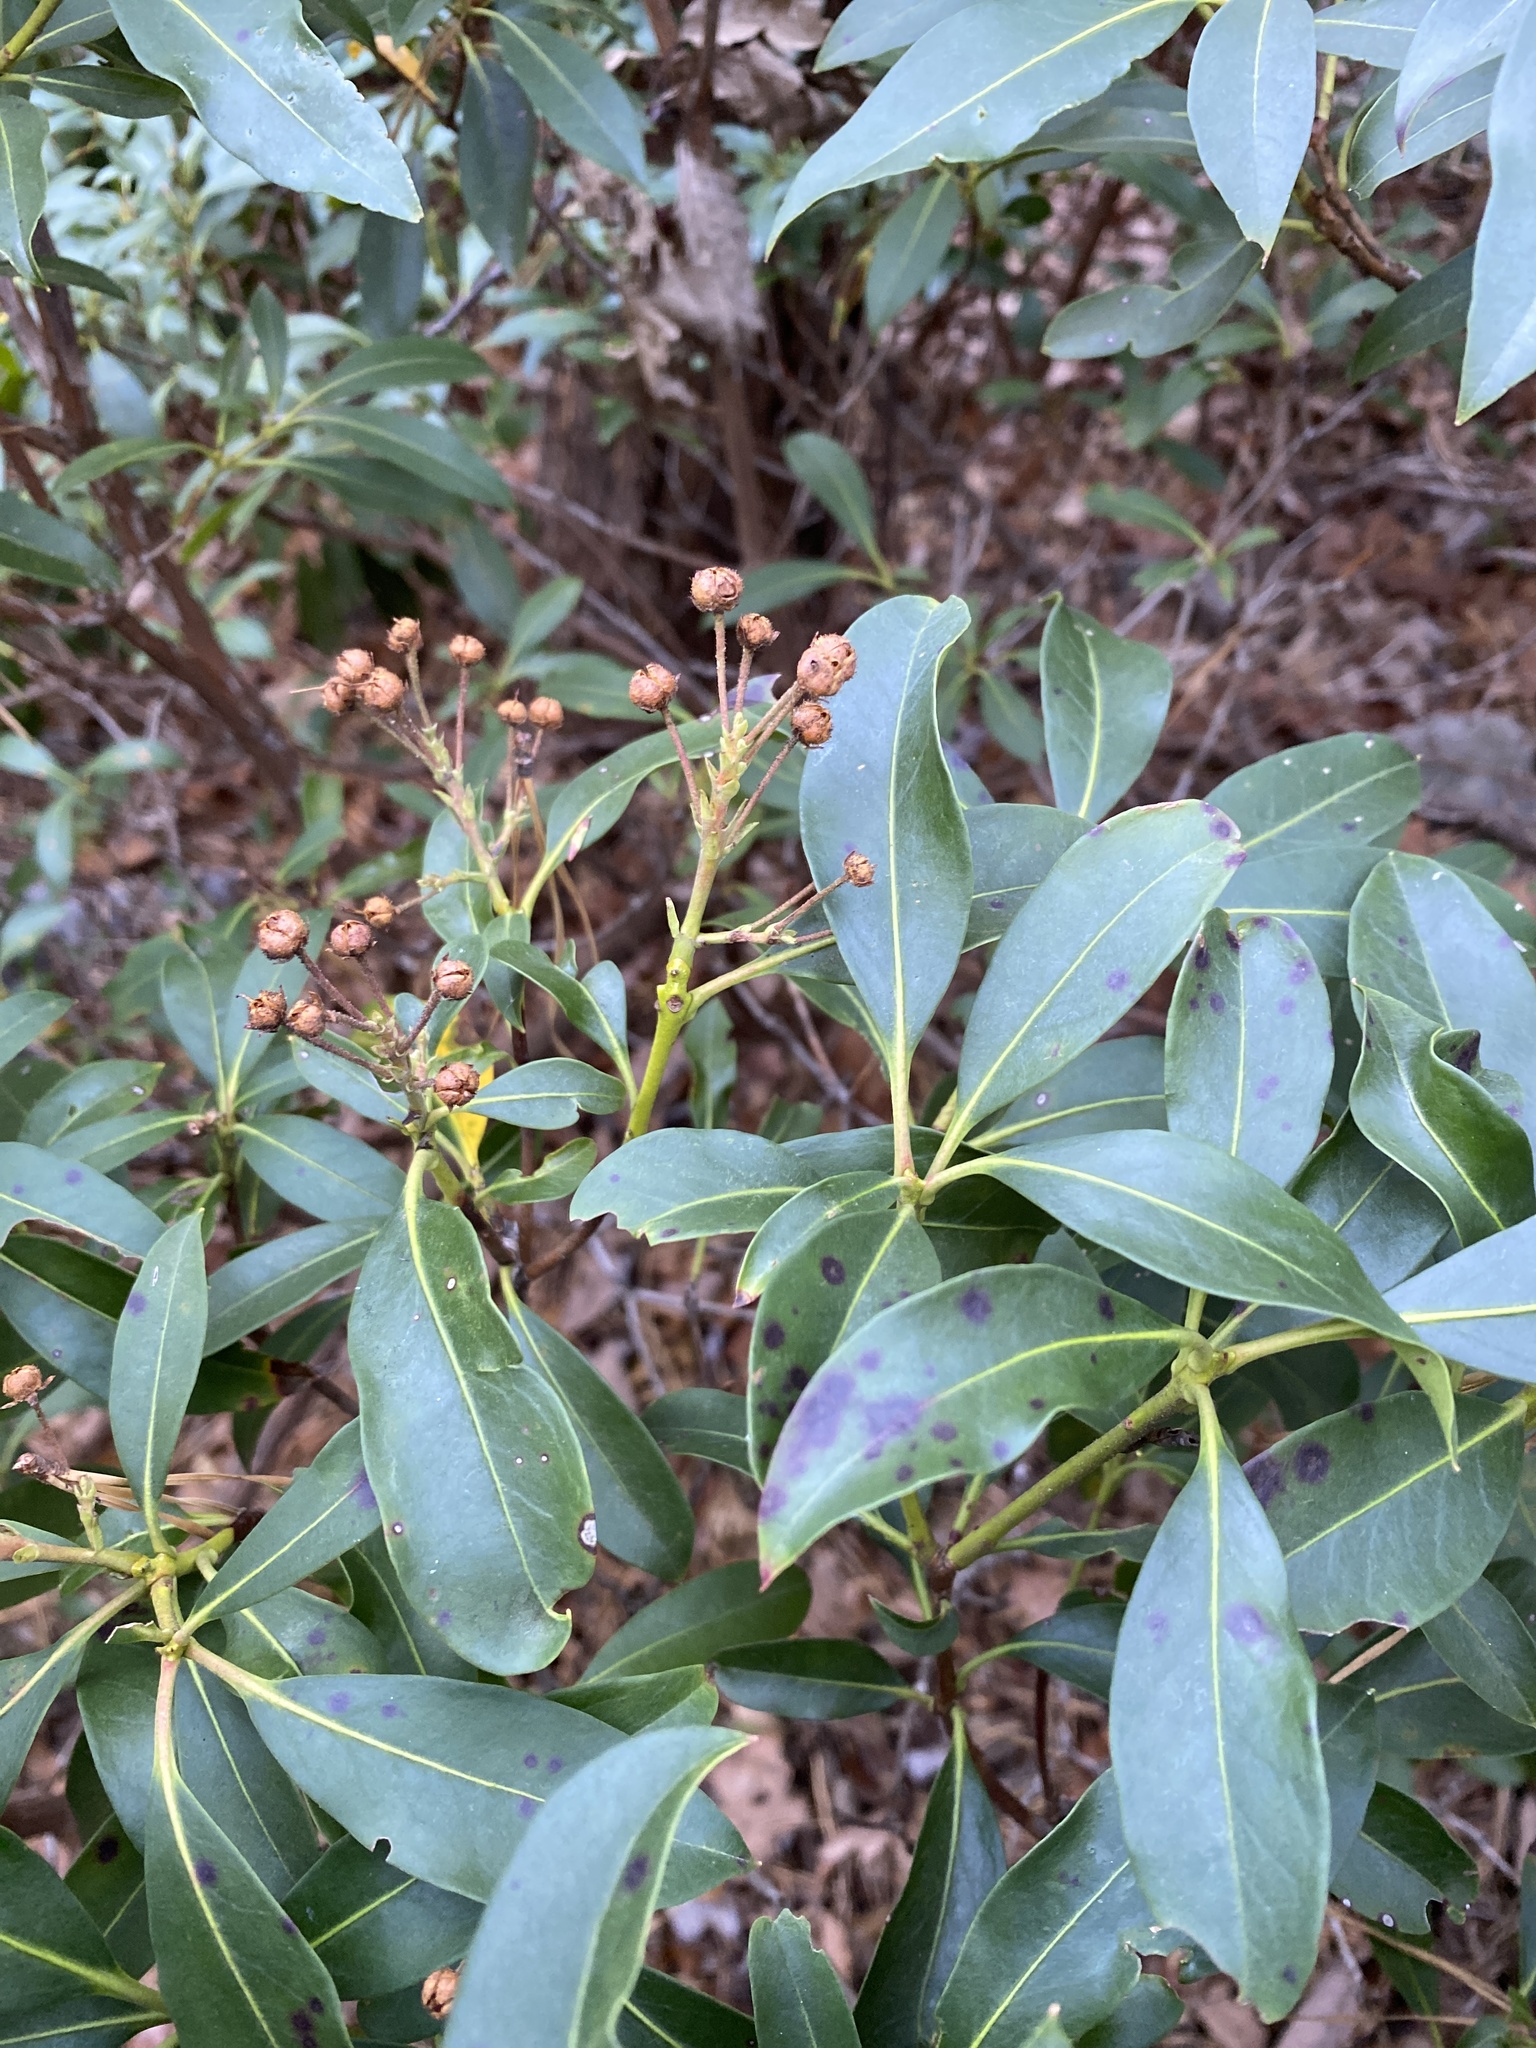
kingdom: Plantae
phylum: Tracheophyta
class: Magnoliopsida
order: Ericales
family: Ericaceae
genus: Kalmia
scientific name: Kalmia latifolia
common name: Mountain-laurel
